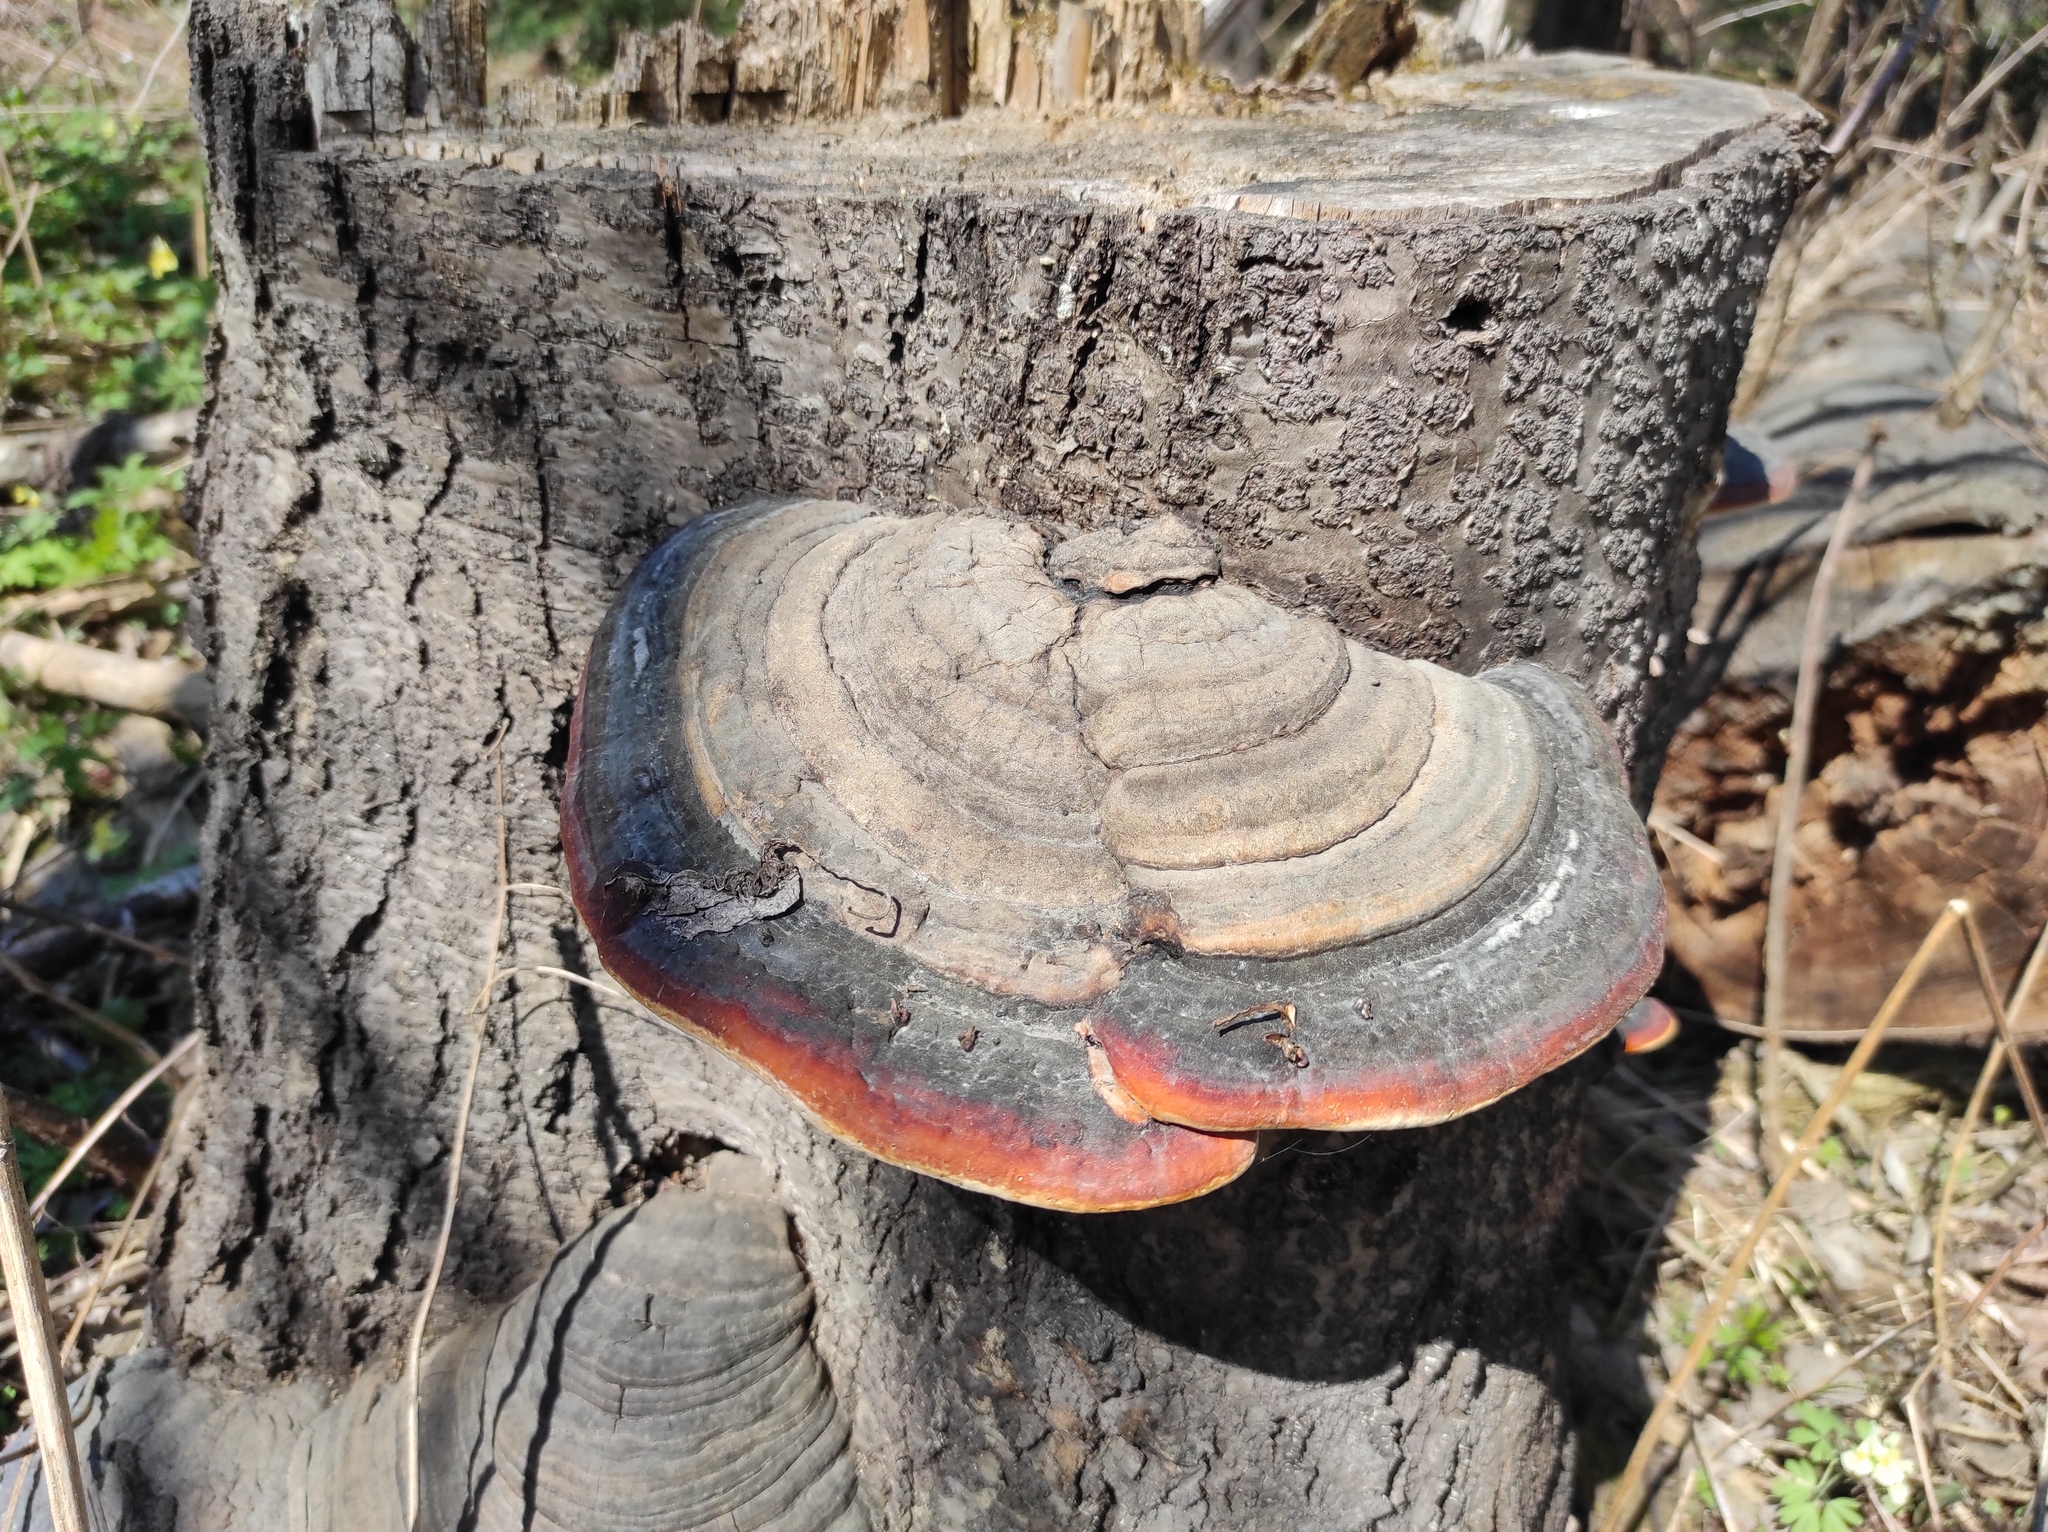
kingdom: Fungi
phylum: Basidiomycota
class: Agaricomycetes
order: Polyporales
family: Fomitopsidaceae
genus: Fomitopsis
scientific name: Fomitopsis pinicola
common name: Red-belted bracket
